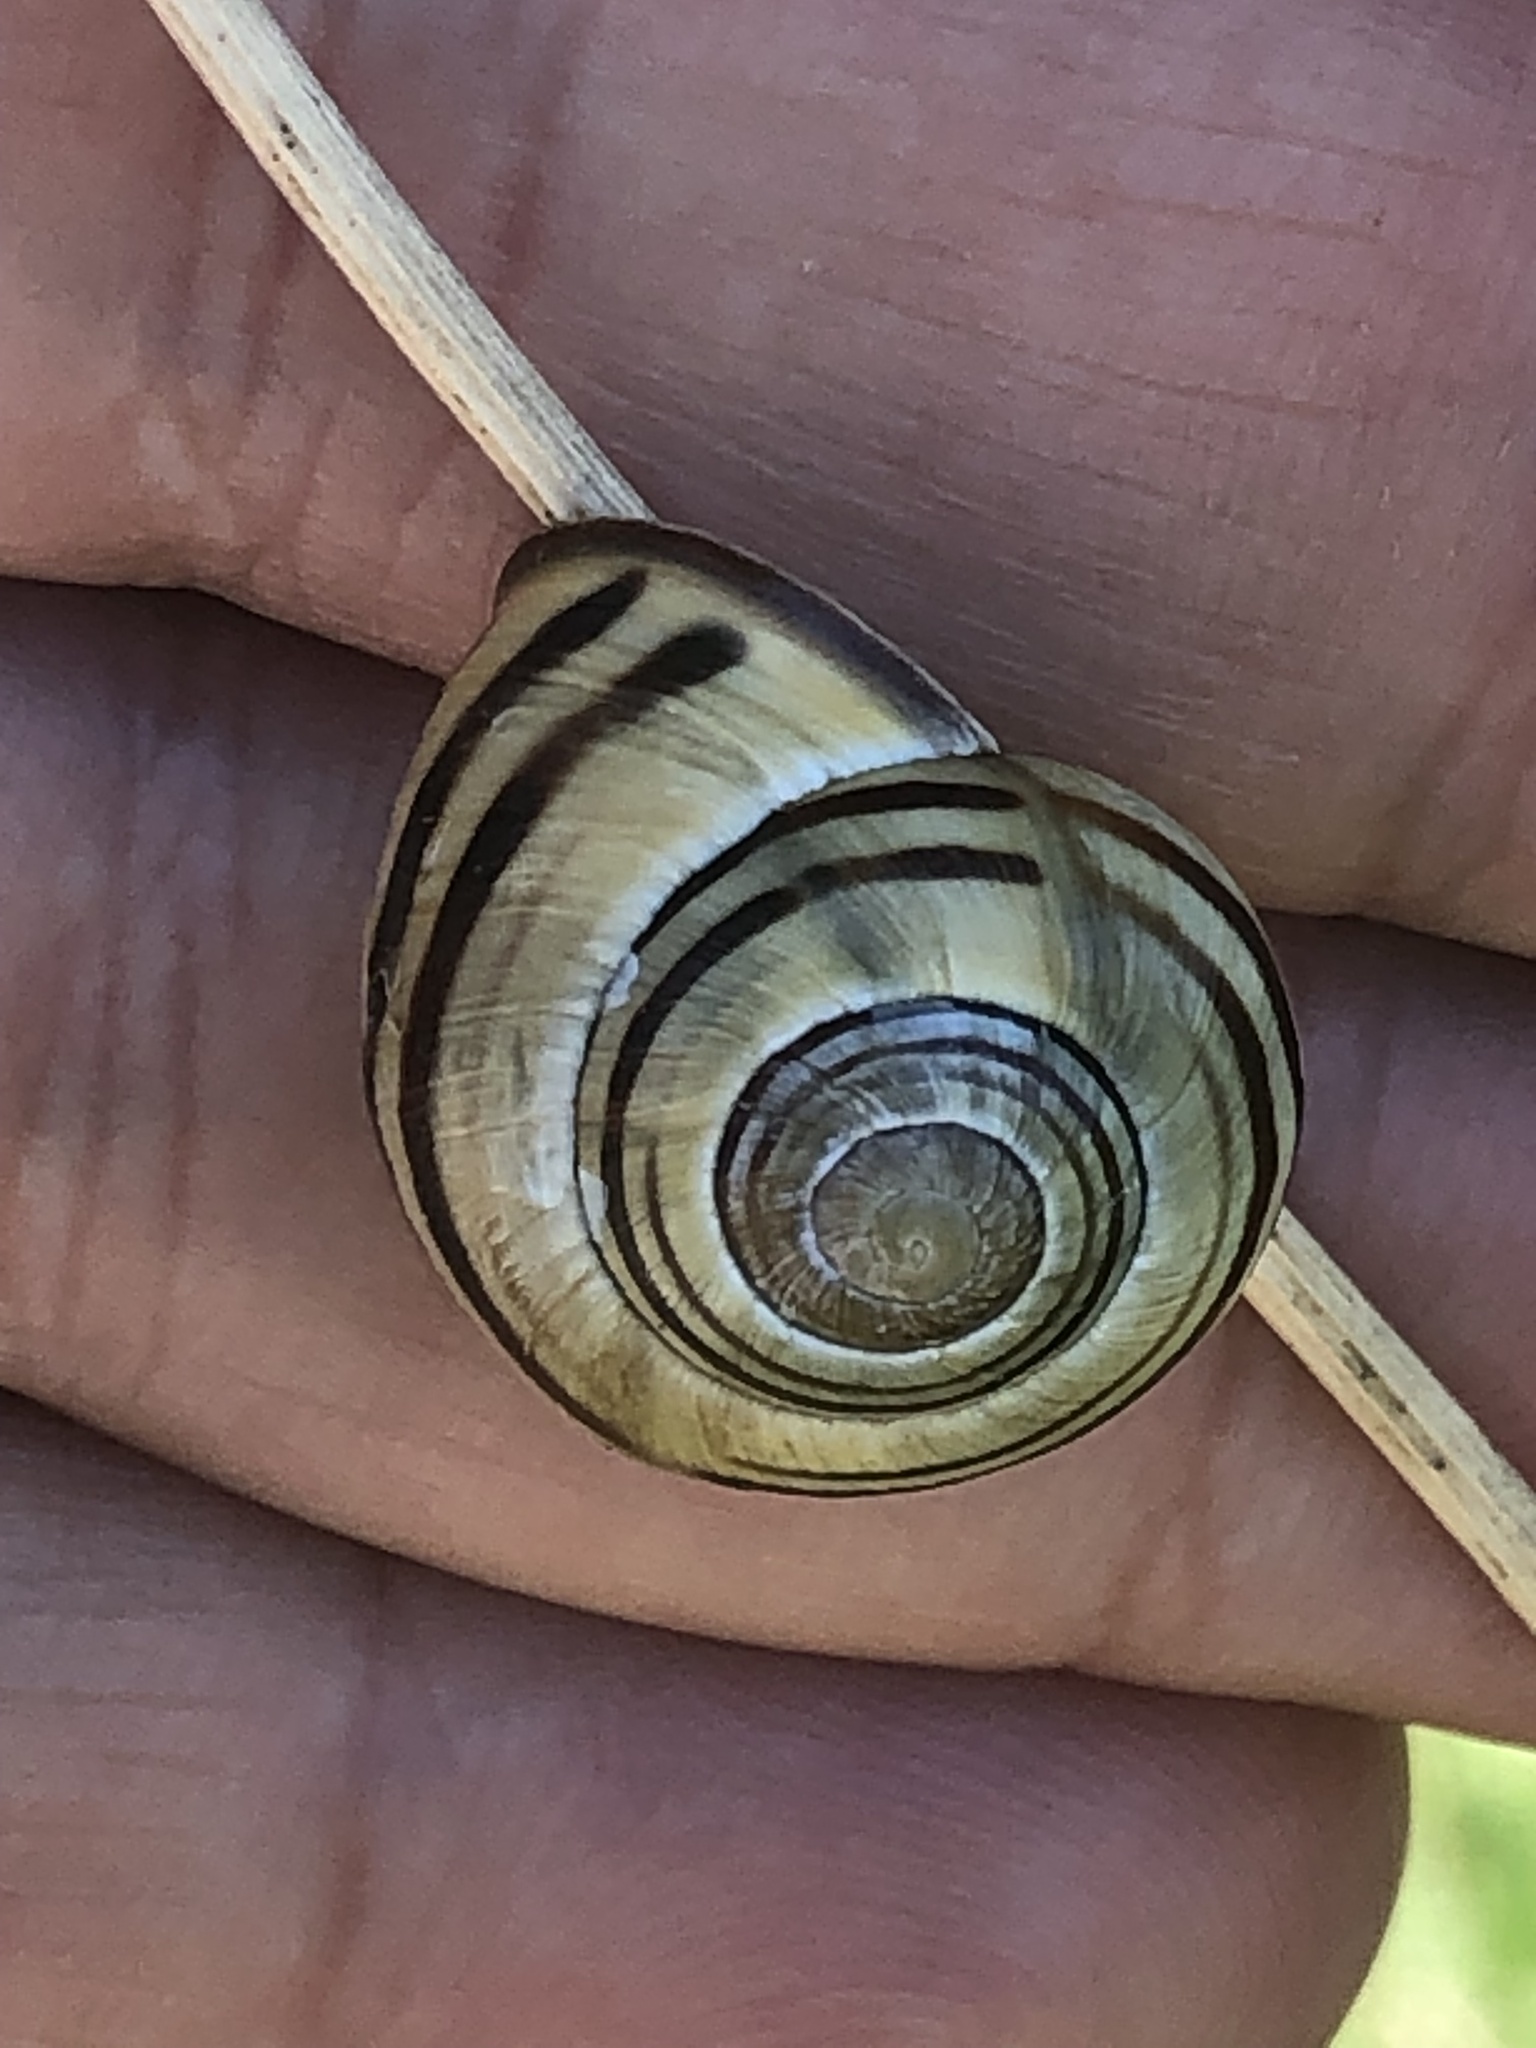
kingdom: Animalia
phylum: Mollusca
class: Gastropoda
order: Stylommatophora
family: Helicidae
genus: Cepaea
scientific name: Cepaea nemoralis
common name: Grovesnail
